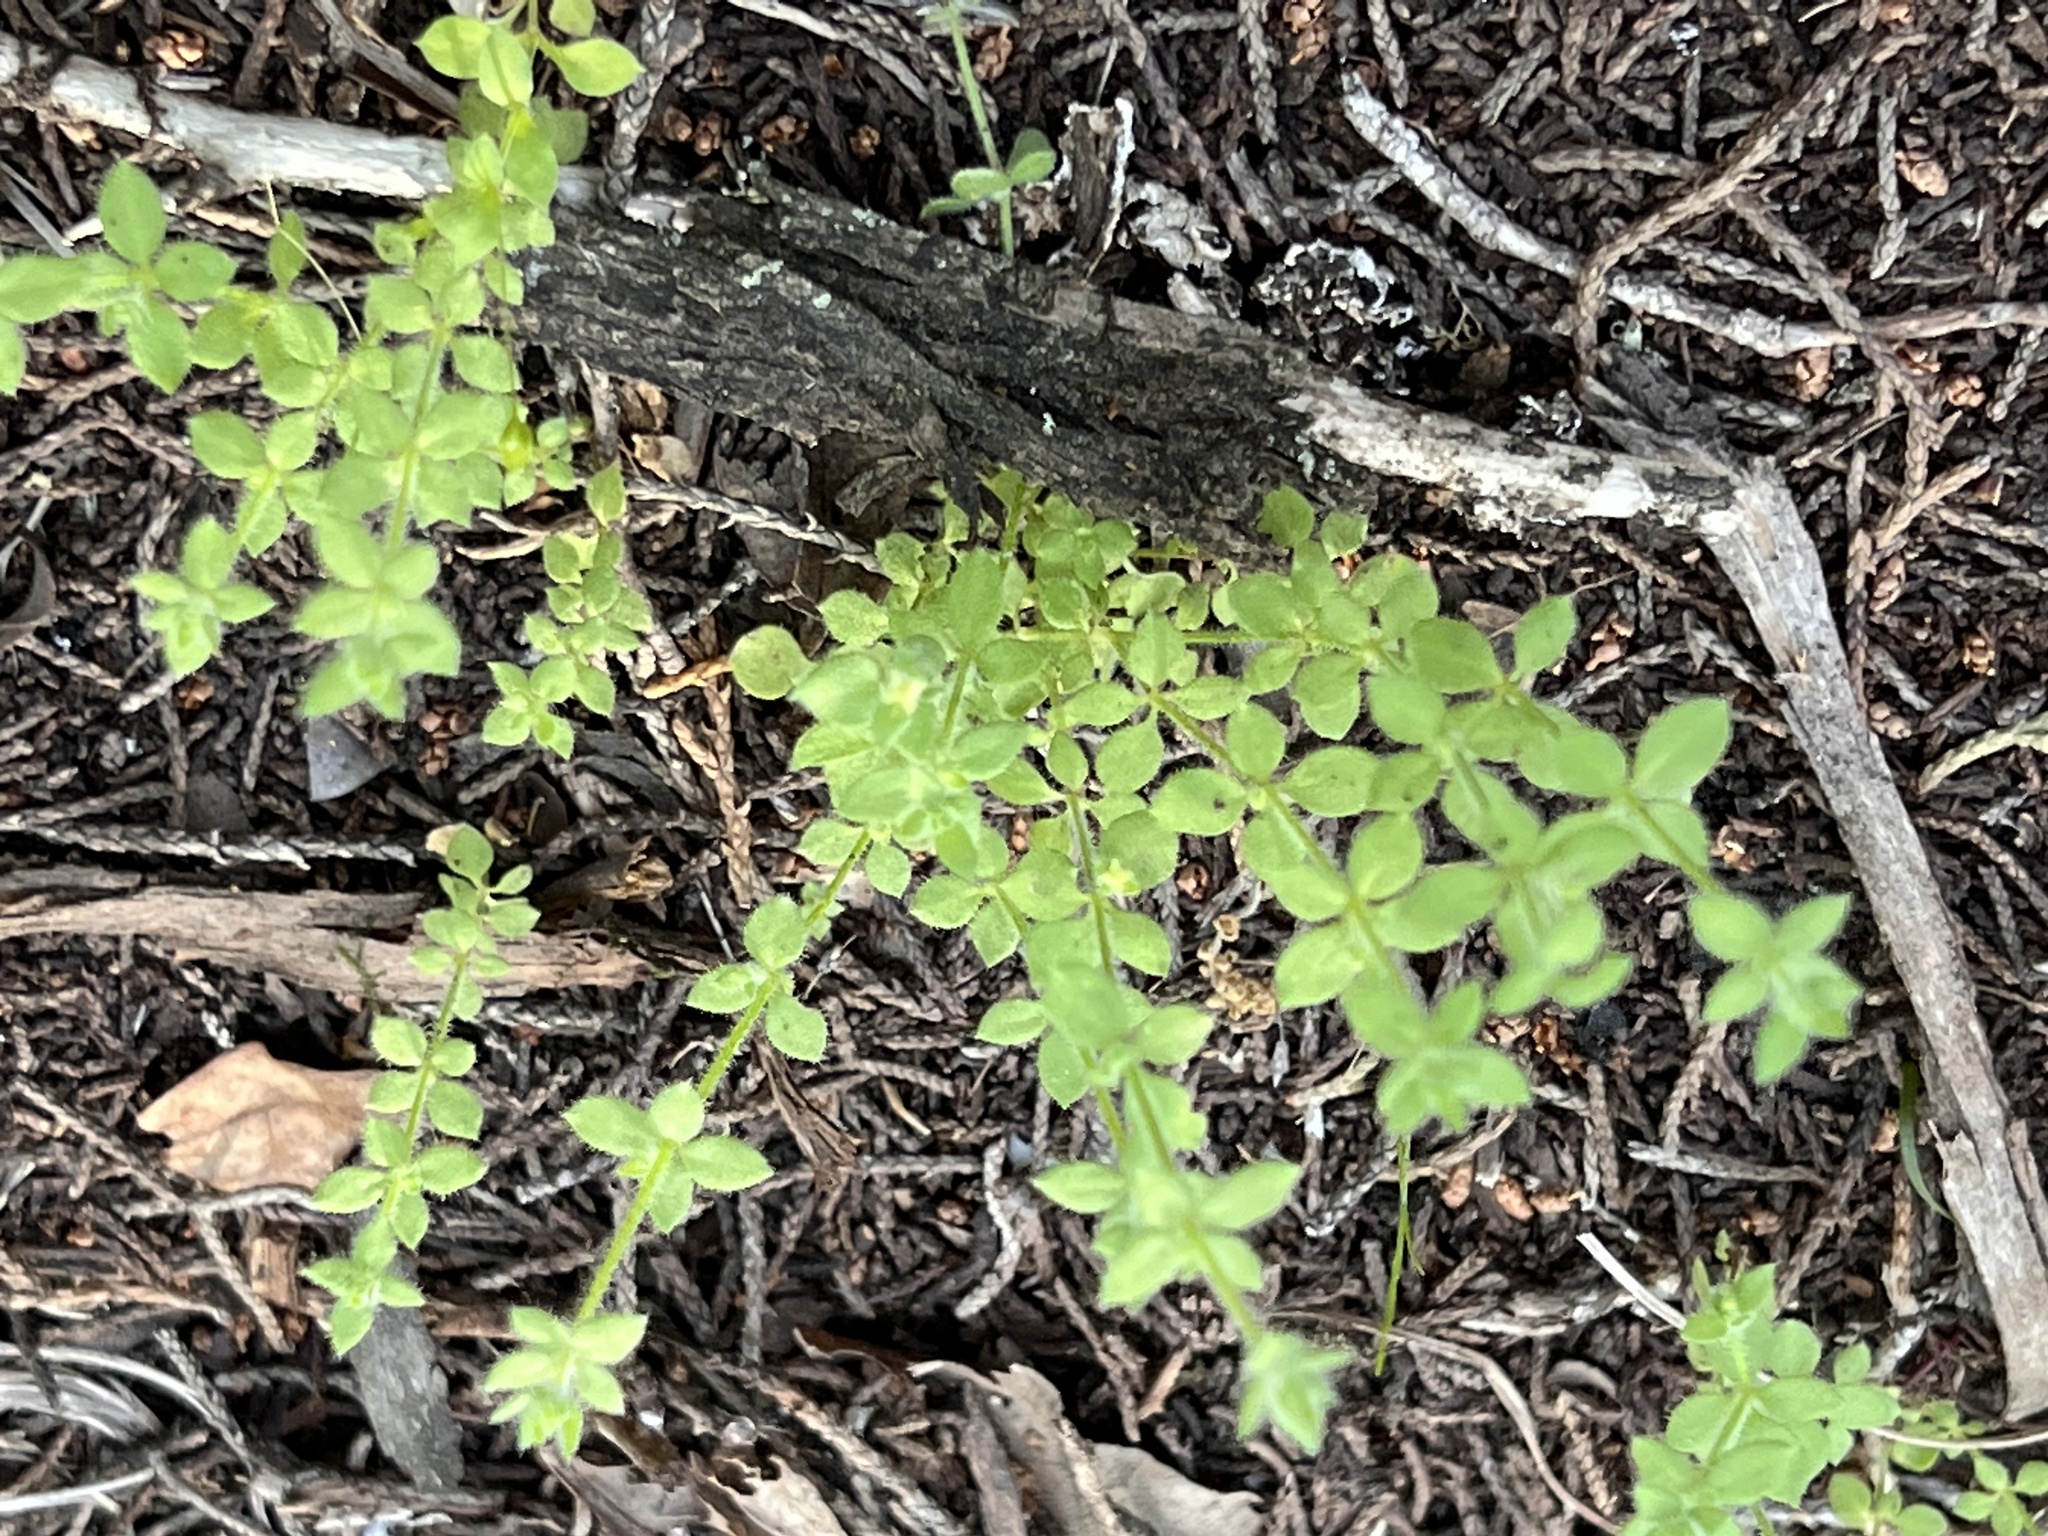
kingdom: Plantae
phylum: Tracheophyta
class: Magnoliopsida
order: Gentianales
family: Rubiaceae
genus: Galium
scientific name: Galium virgatum
